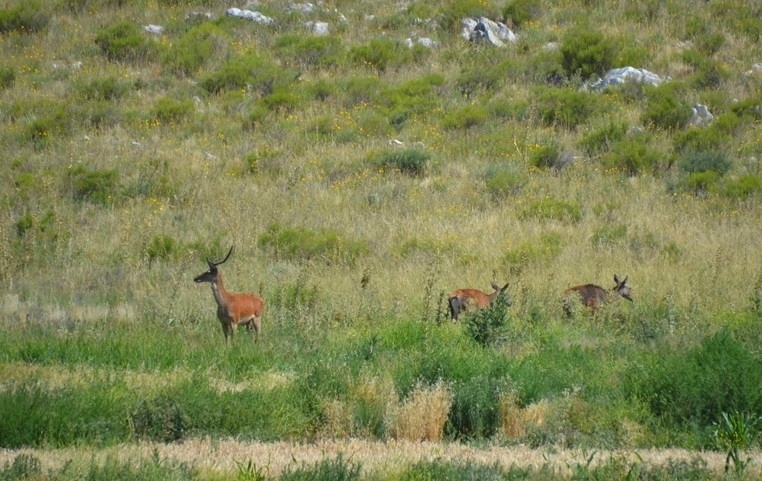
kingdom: Animalia
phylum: Chordata
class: Mammalia
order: Artiodactyla
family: Cervidae
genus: Cervus
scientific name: Cervus elaphus
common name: Red deer
